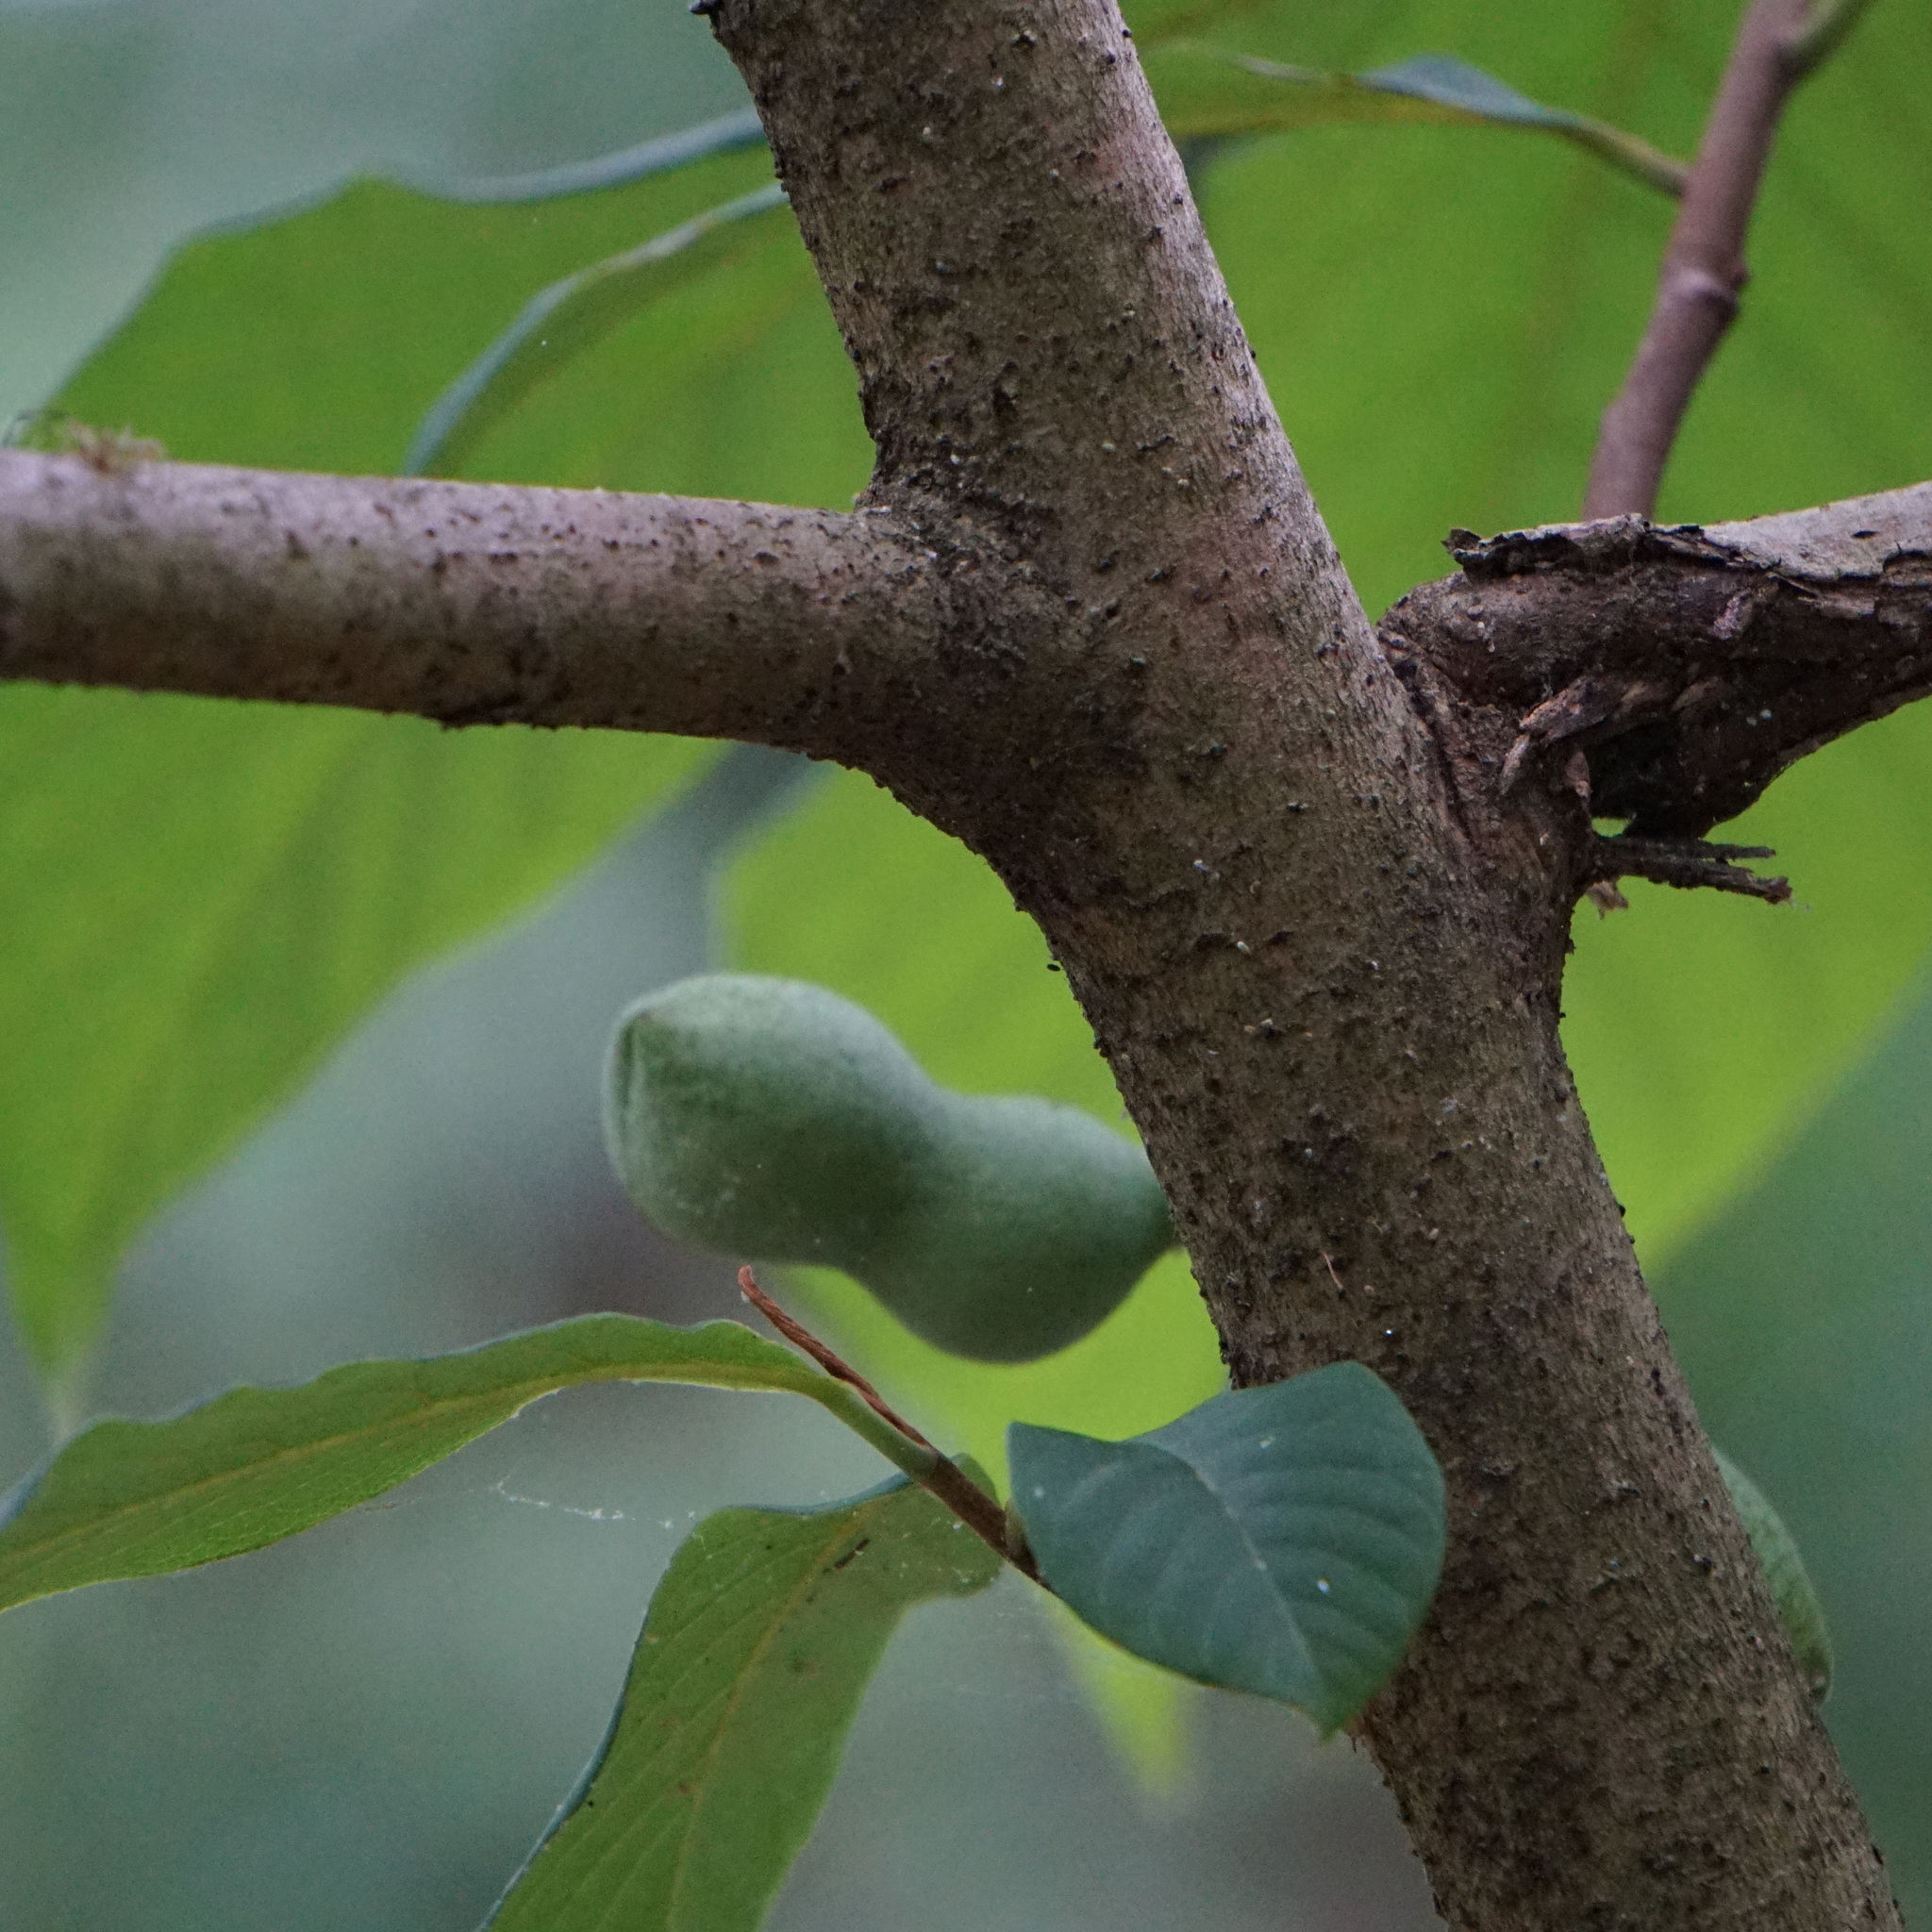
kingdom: Plantae
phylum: Tracheophyta
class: Magnoliopsida
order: Magnoliales
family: Annonaceae
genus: Asimina
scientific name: Asimina triloba
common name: Dog-banana
